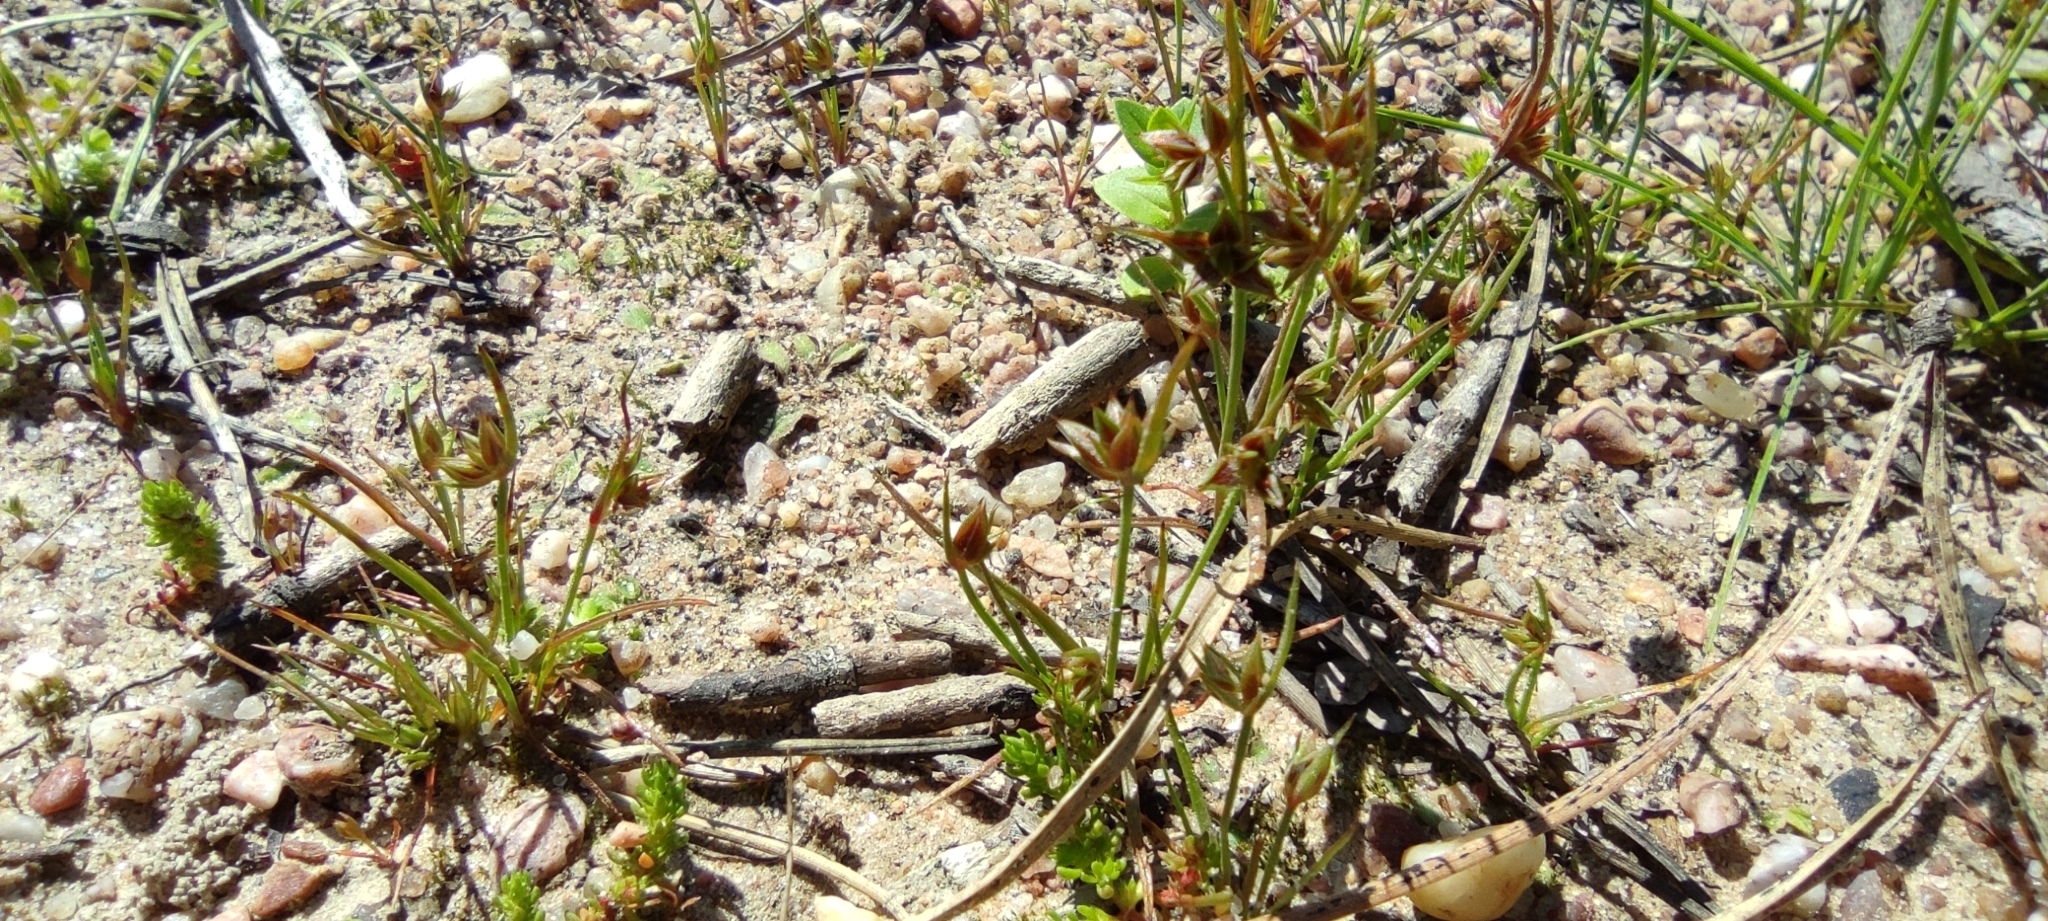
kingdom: Plantae
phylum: Tracheophyta
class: Liliopsida
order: Poales
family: Juncaceae
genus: Juncus
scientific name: Juncus capitatus
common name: Dwarf rush
